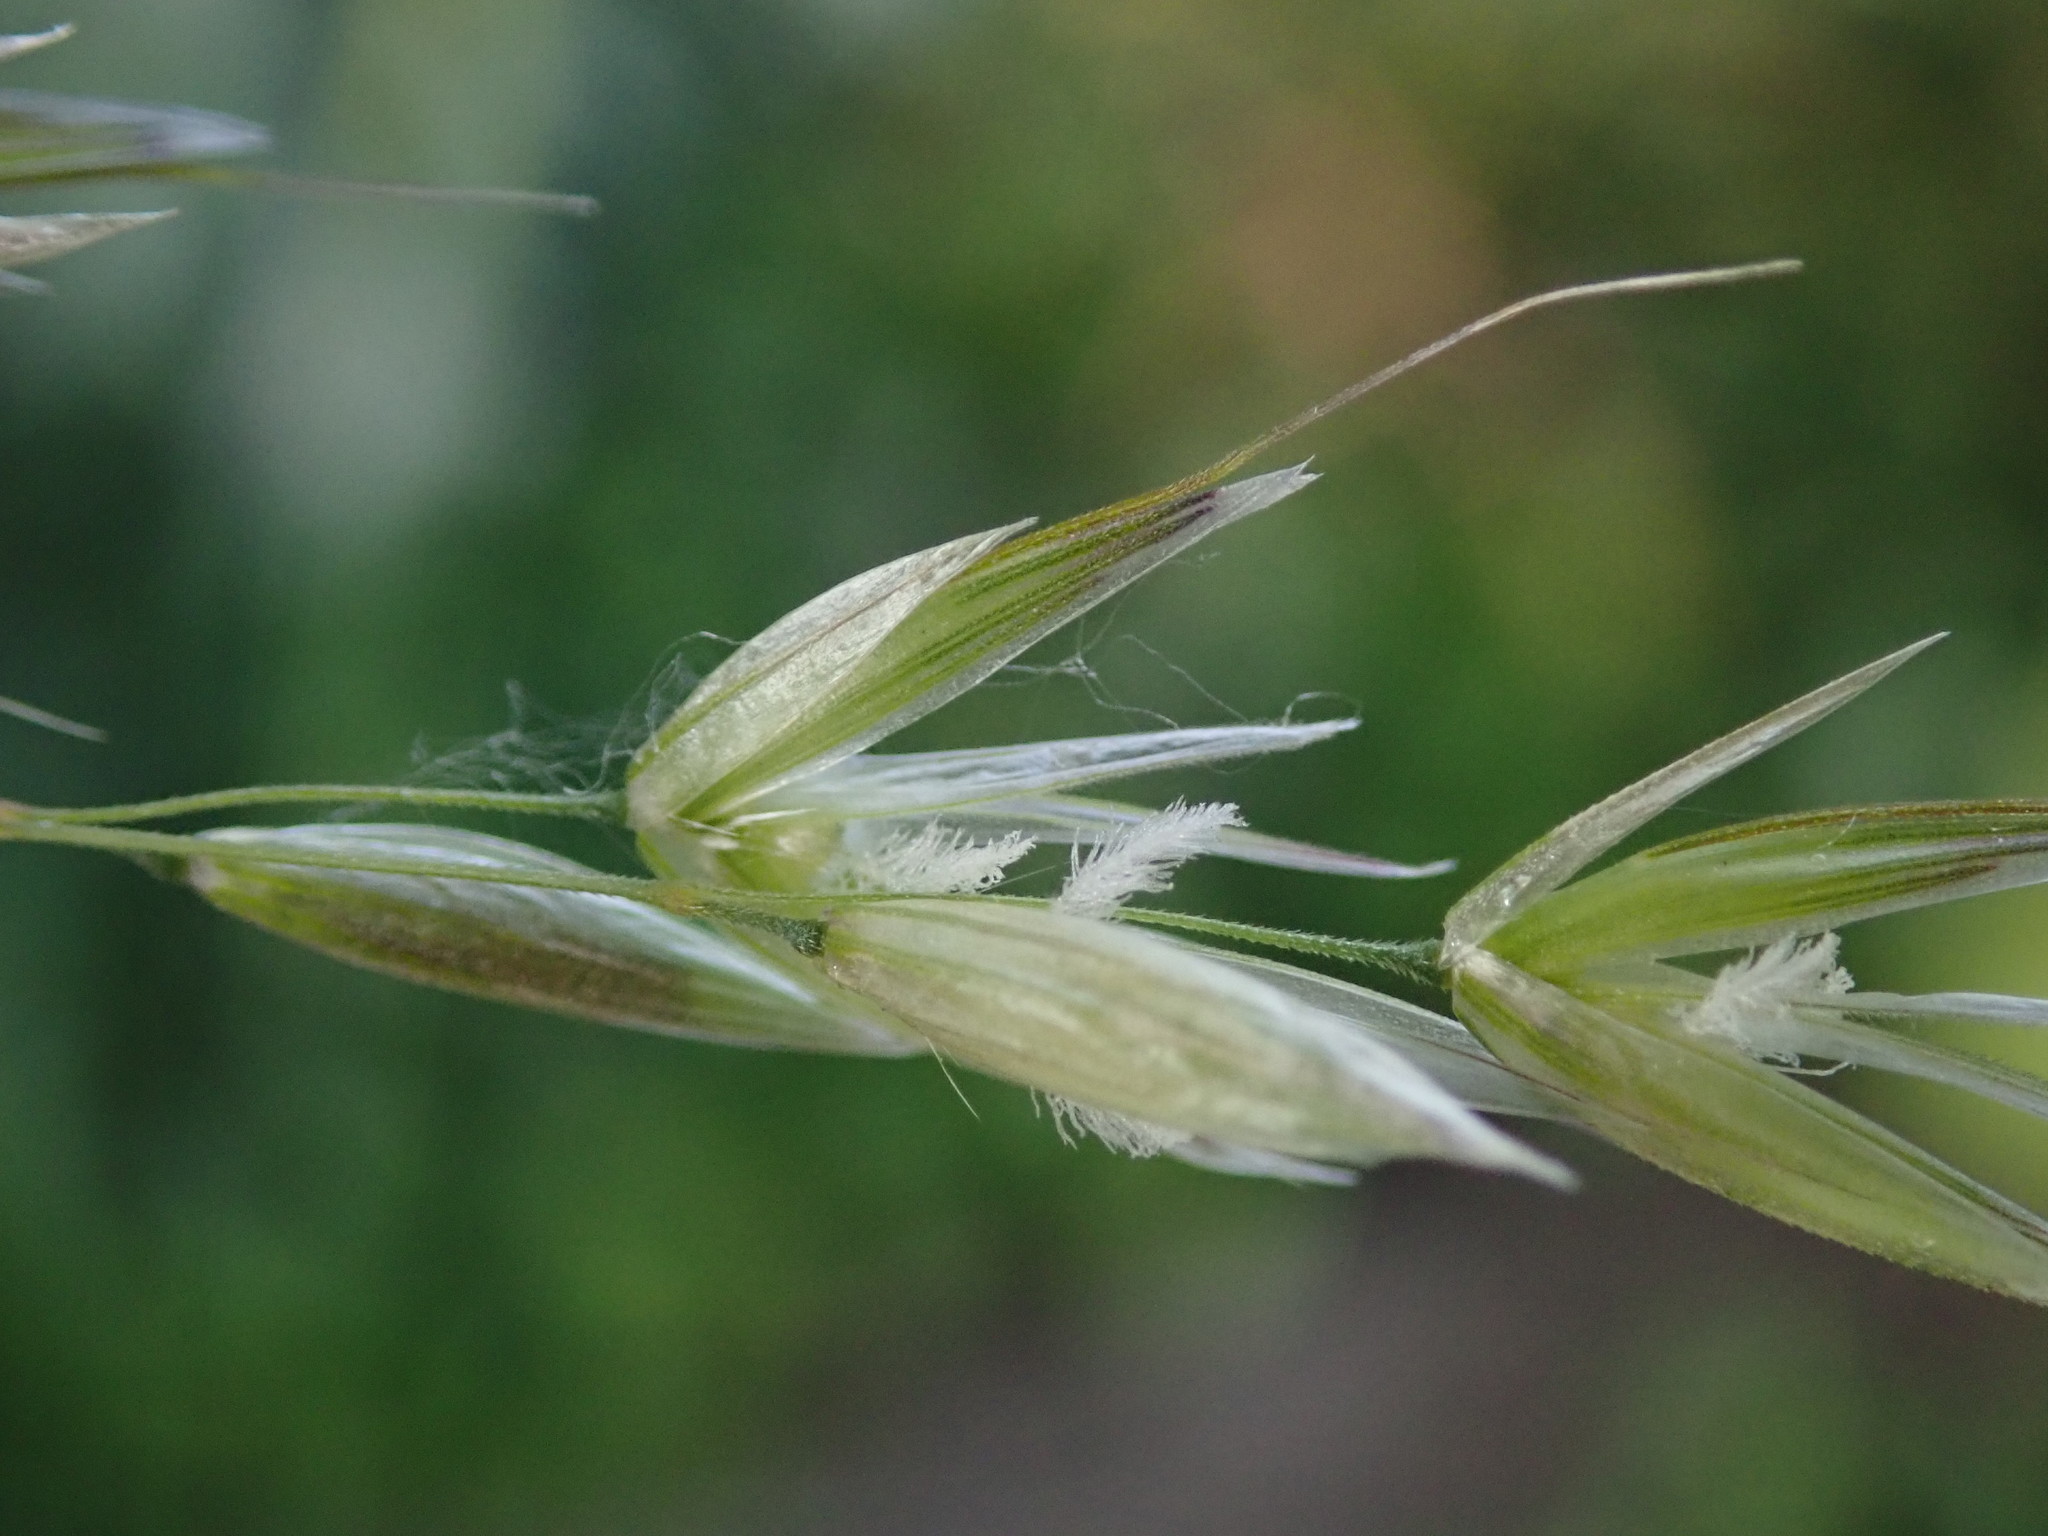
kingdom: Plantae
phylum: Tracheophyta
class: Liliopsida
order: Poales
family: Poaceae
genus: Arrhenatherum
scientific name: Arrhenatherum elatius
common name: Tall oatgrass
